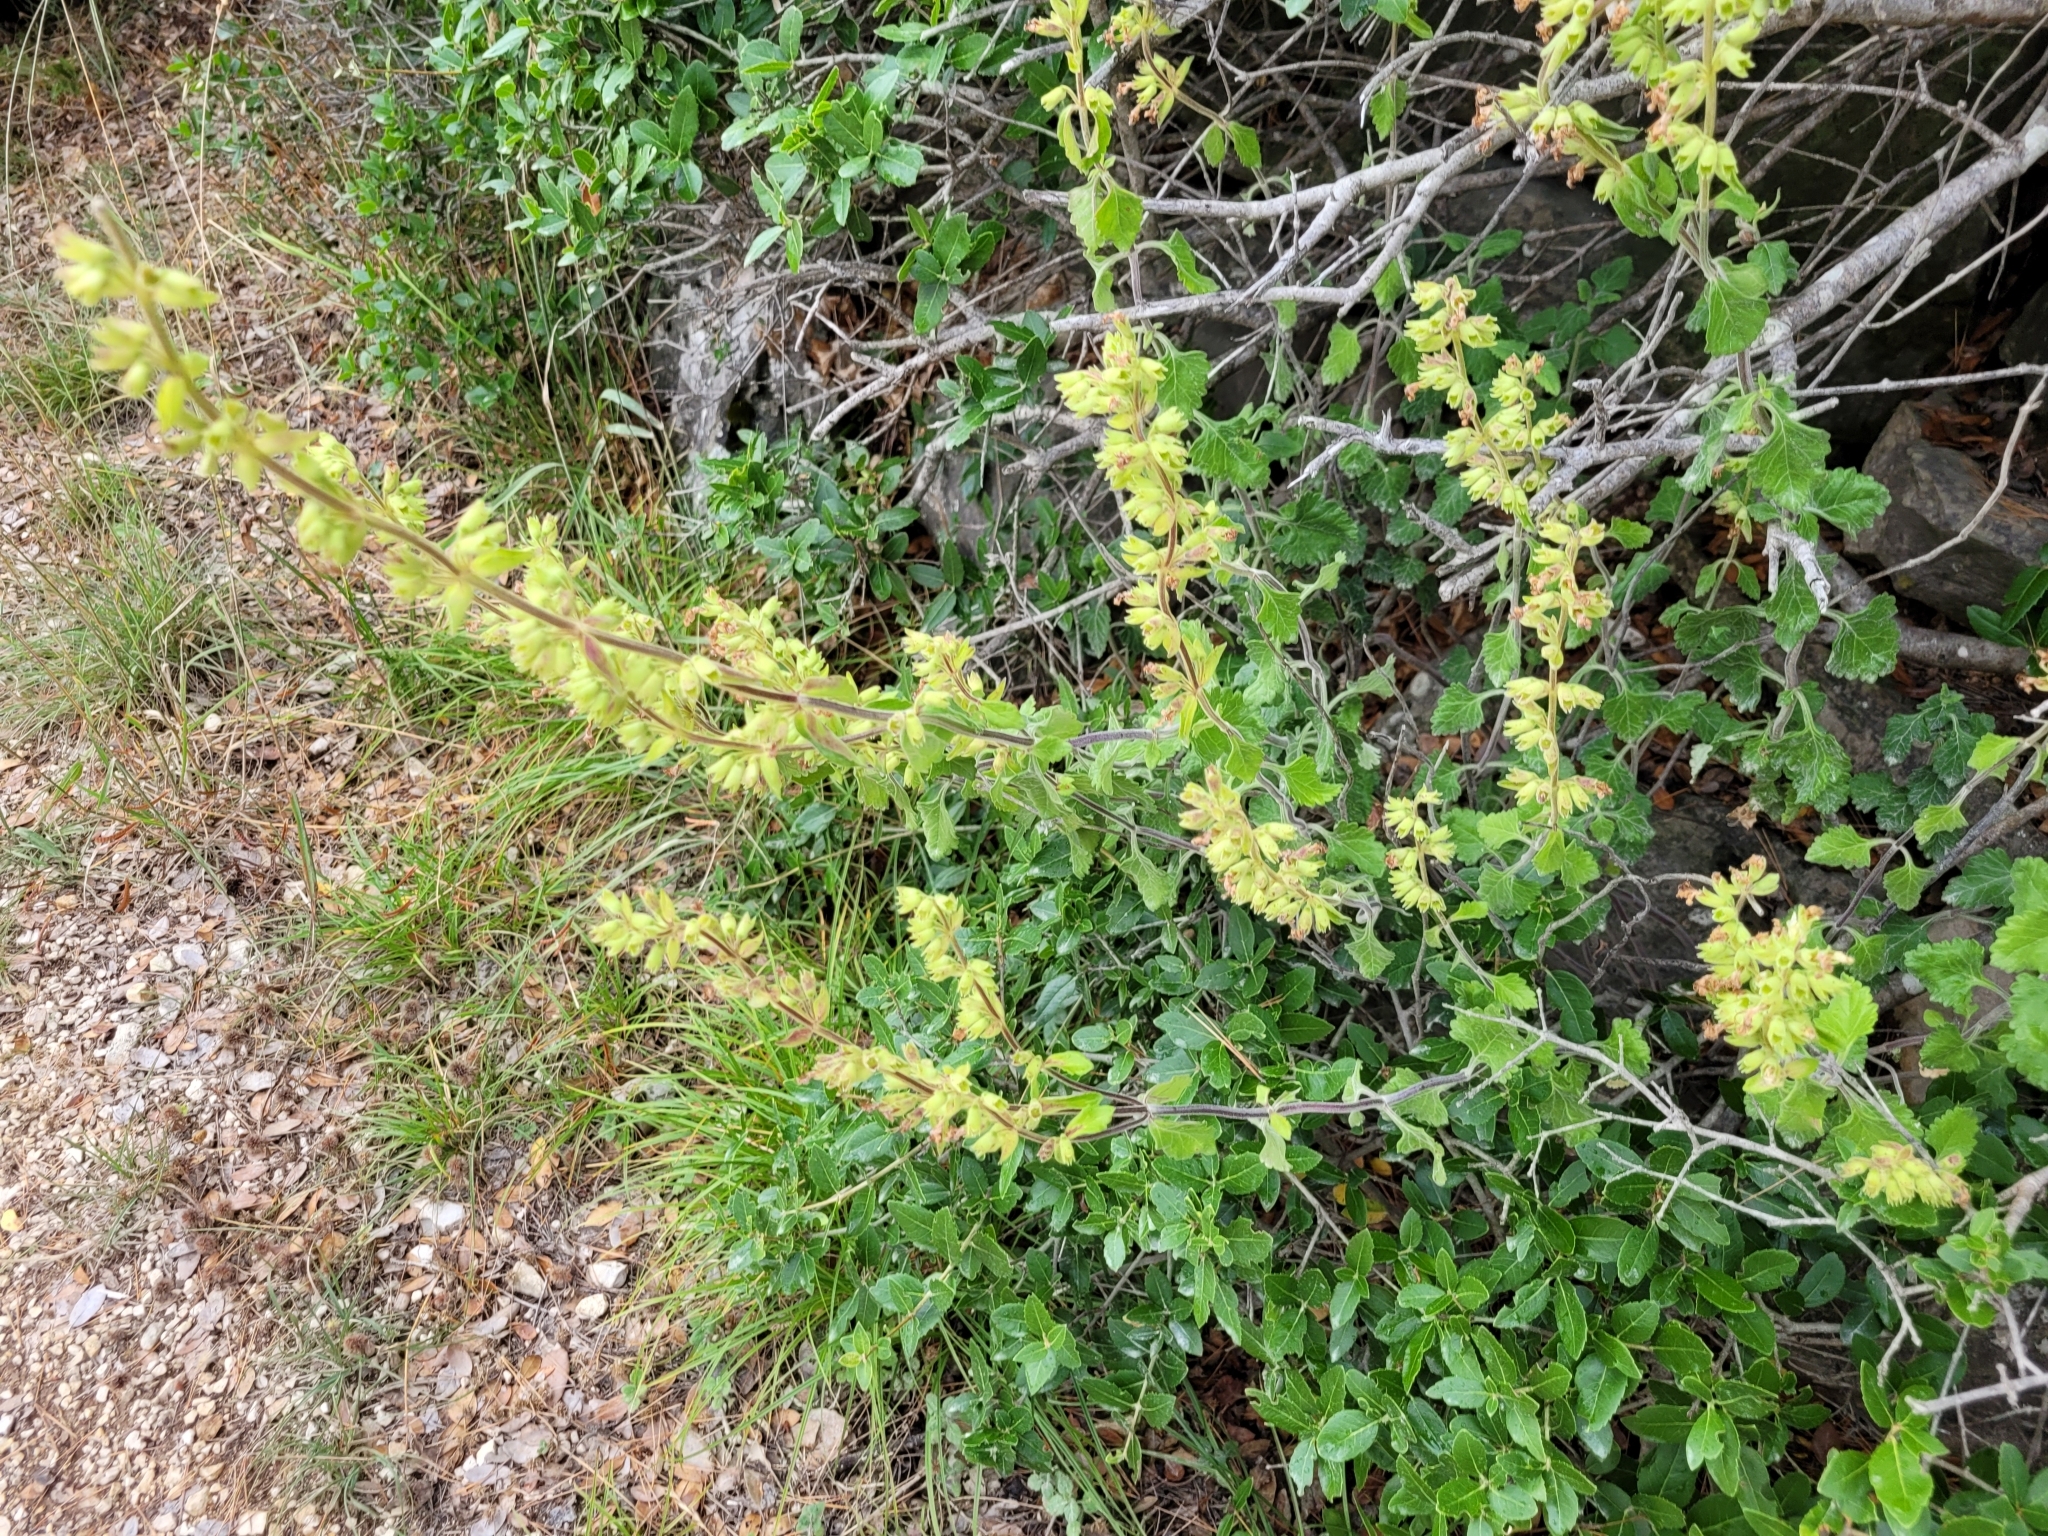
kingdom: Plantae
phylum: Tracheophyta
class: Magnoliopsida
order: Lamiales
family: Lamiaceae
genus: Teucrium
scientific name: Teucrium flavum
